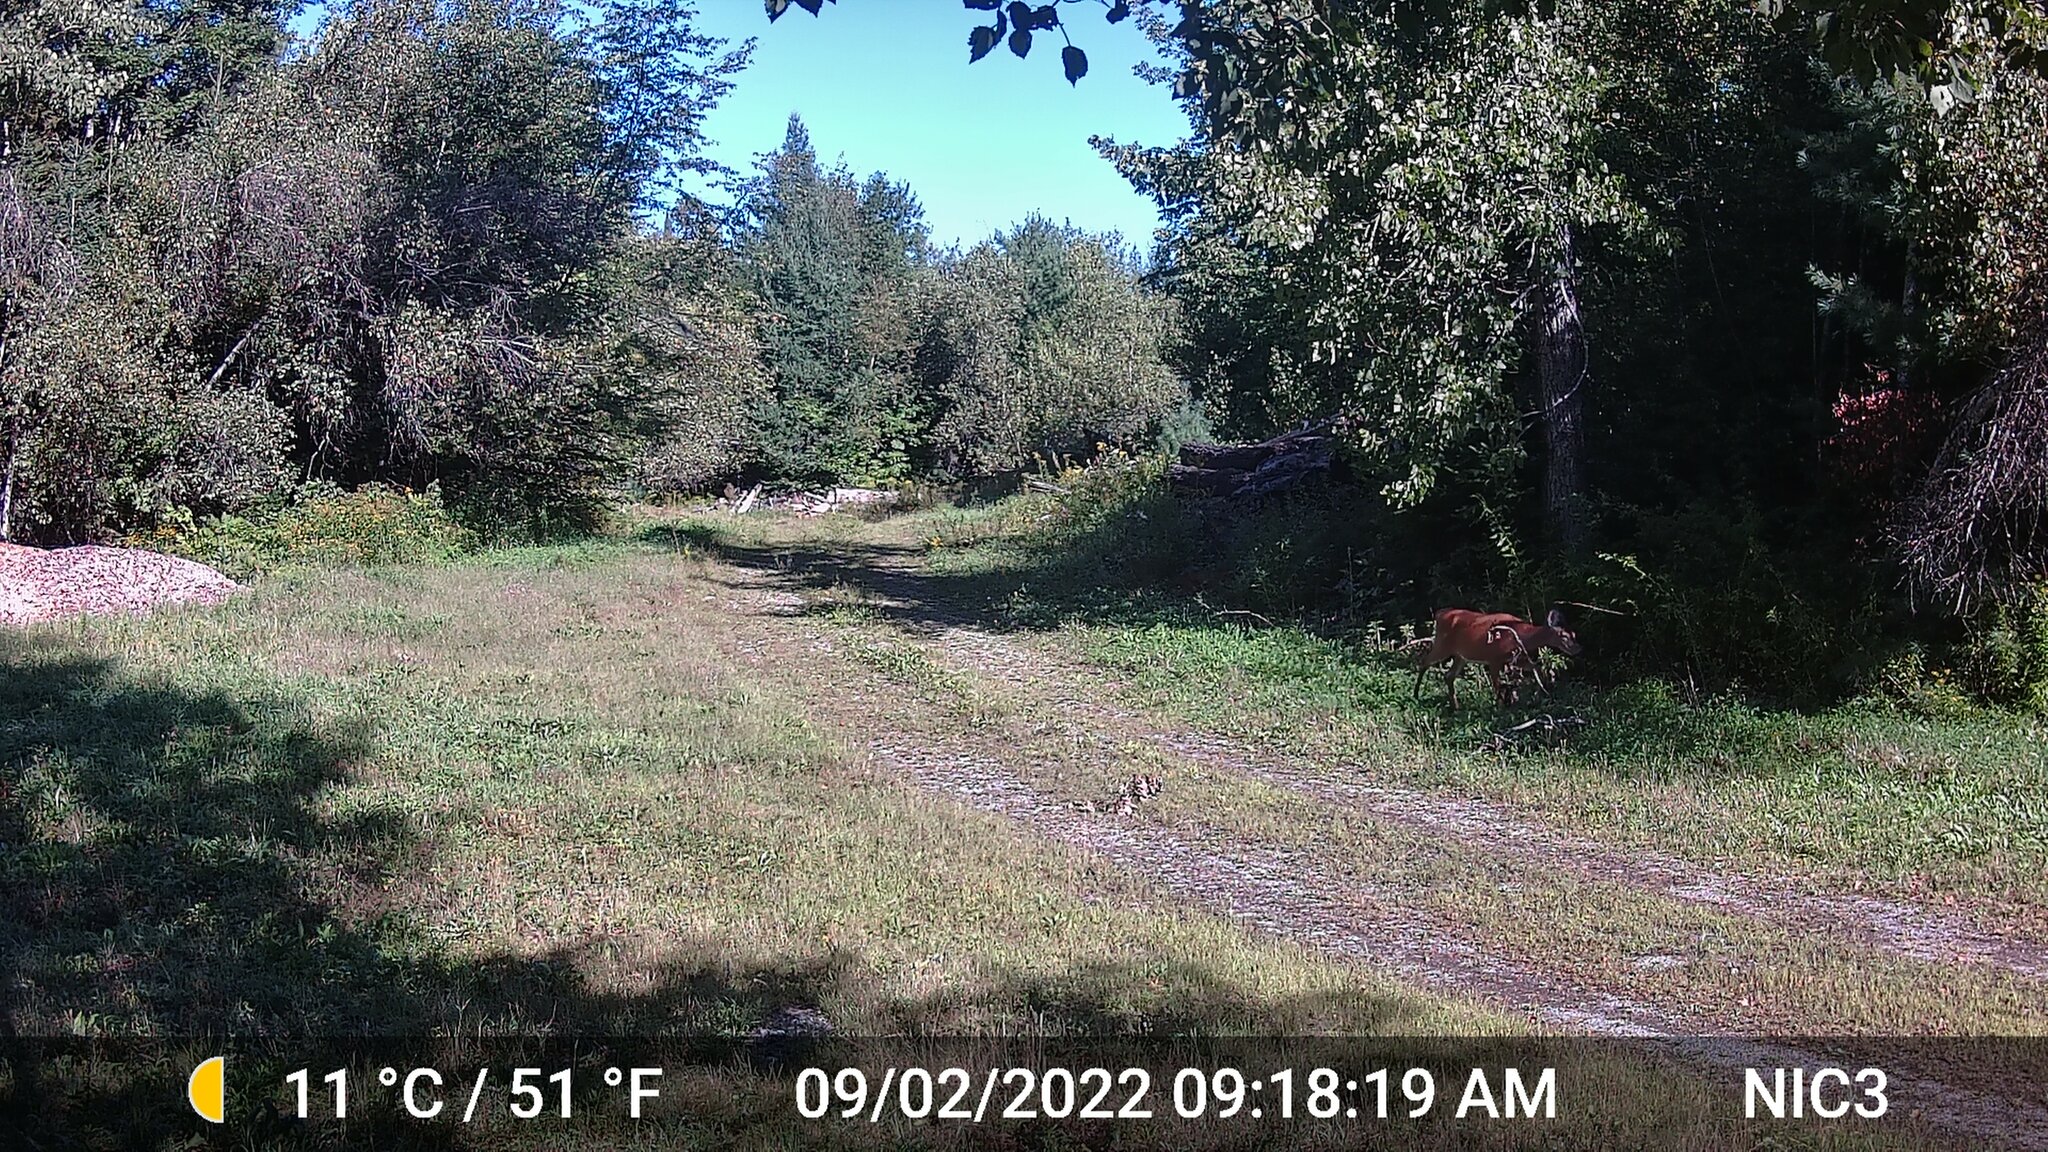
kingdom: Animalia
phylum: Chordata
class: Mammalia
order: Artiodactyla
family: Cervidae
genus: Odocoileus
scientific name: Odocoileus virginianus
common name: White-tailed deer
